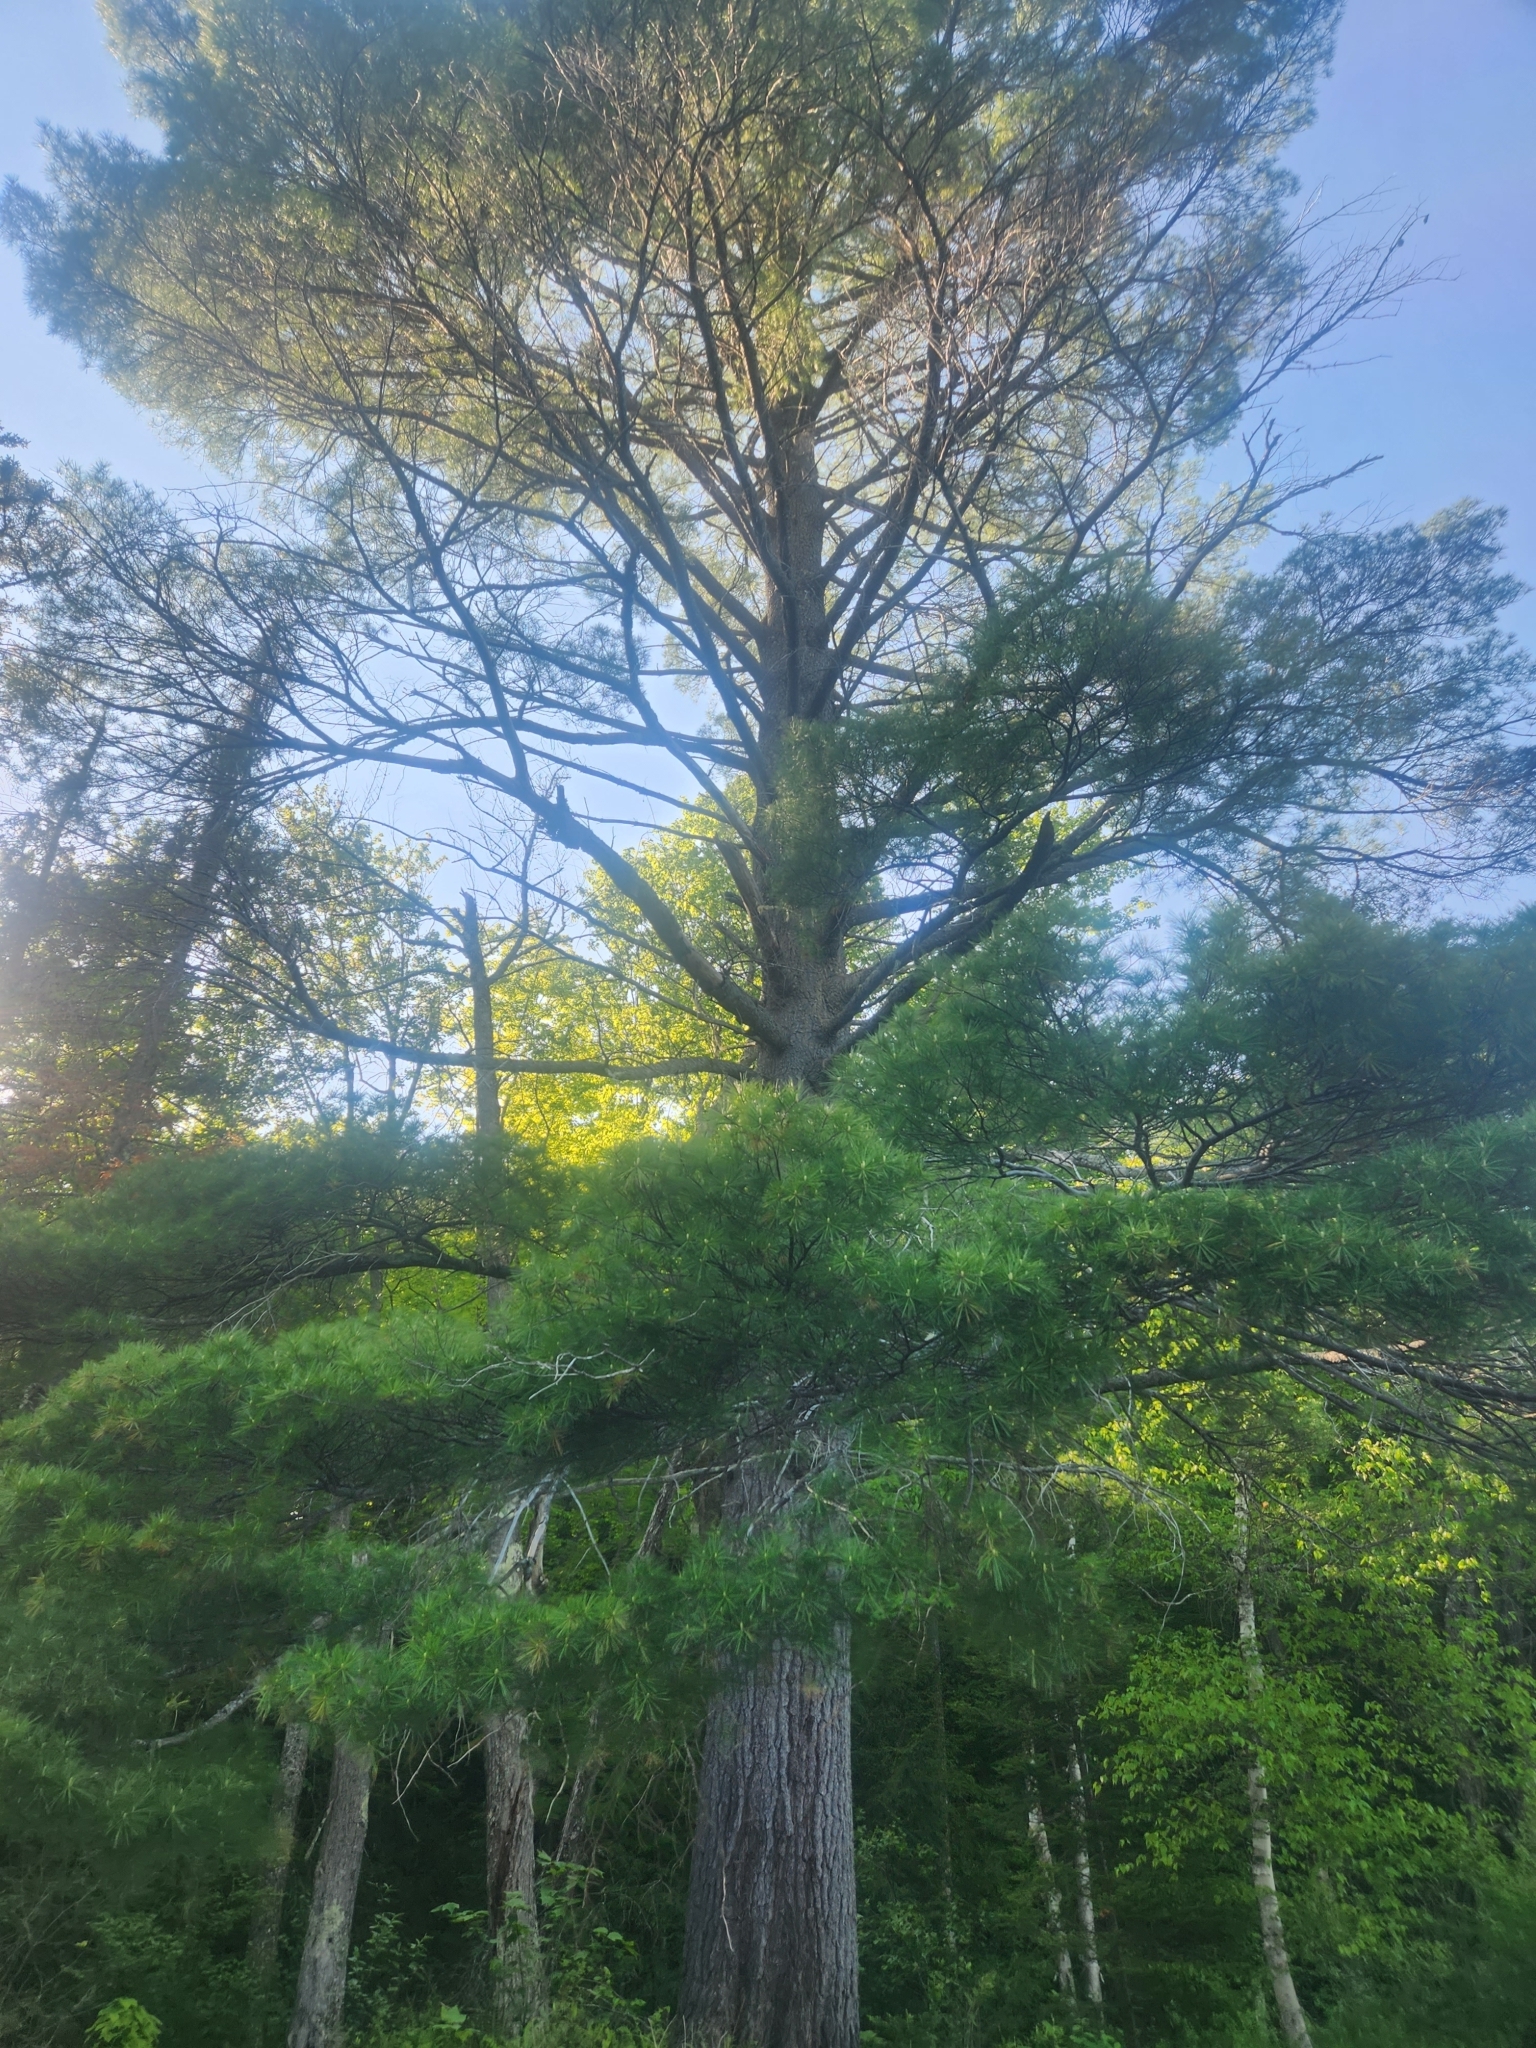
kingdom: Plantae
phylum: Tracheophyta
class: Pinopsida
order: Pinales
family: Pinaceae
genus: Pinus
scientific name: Pinus strobus
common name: Weymouth pine
